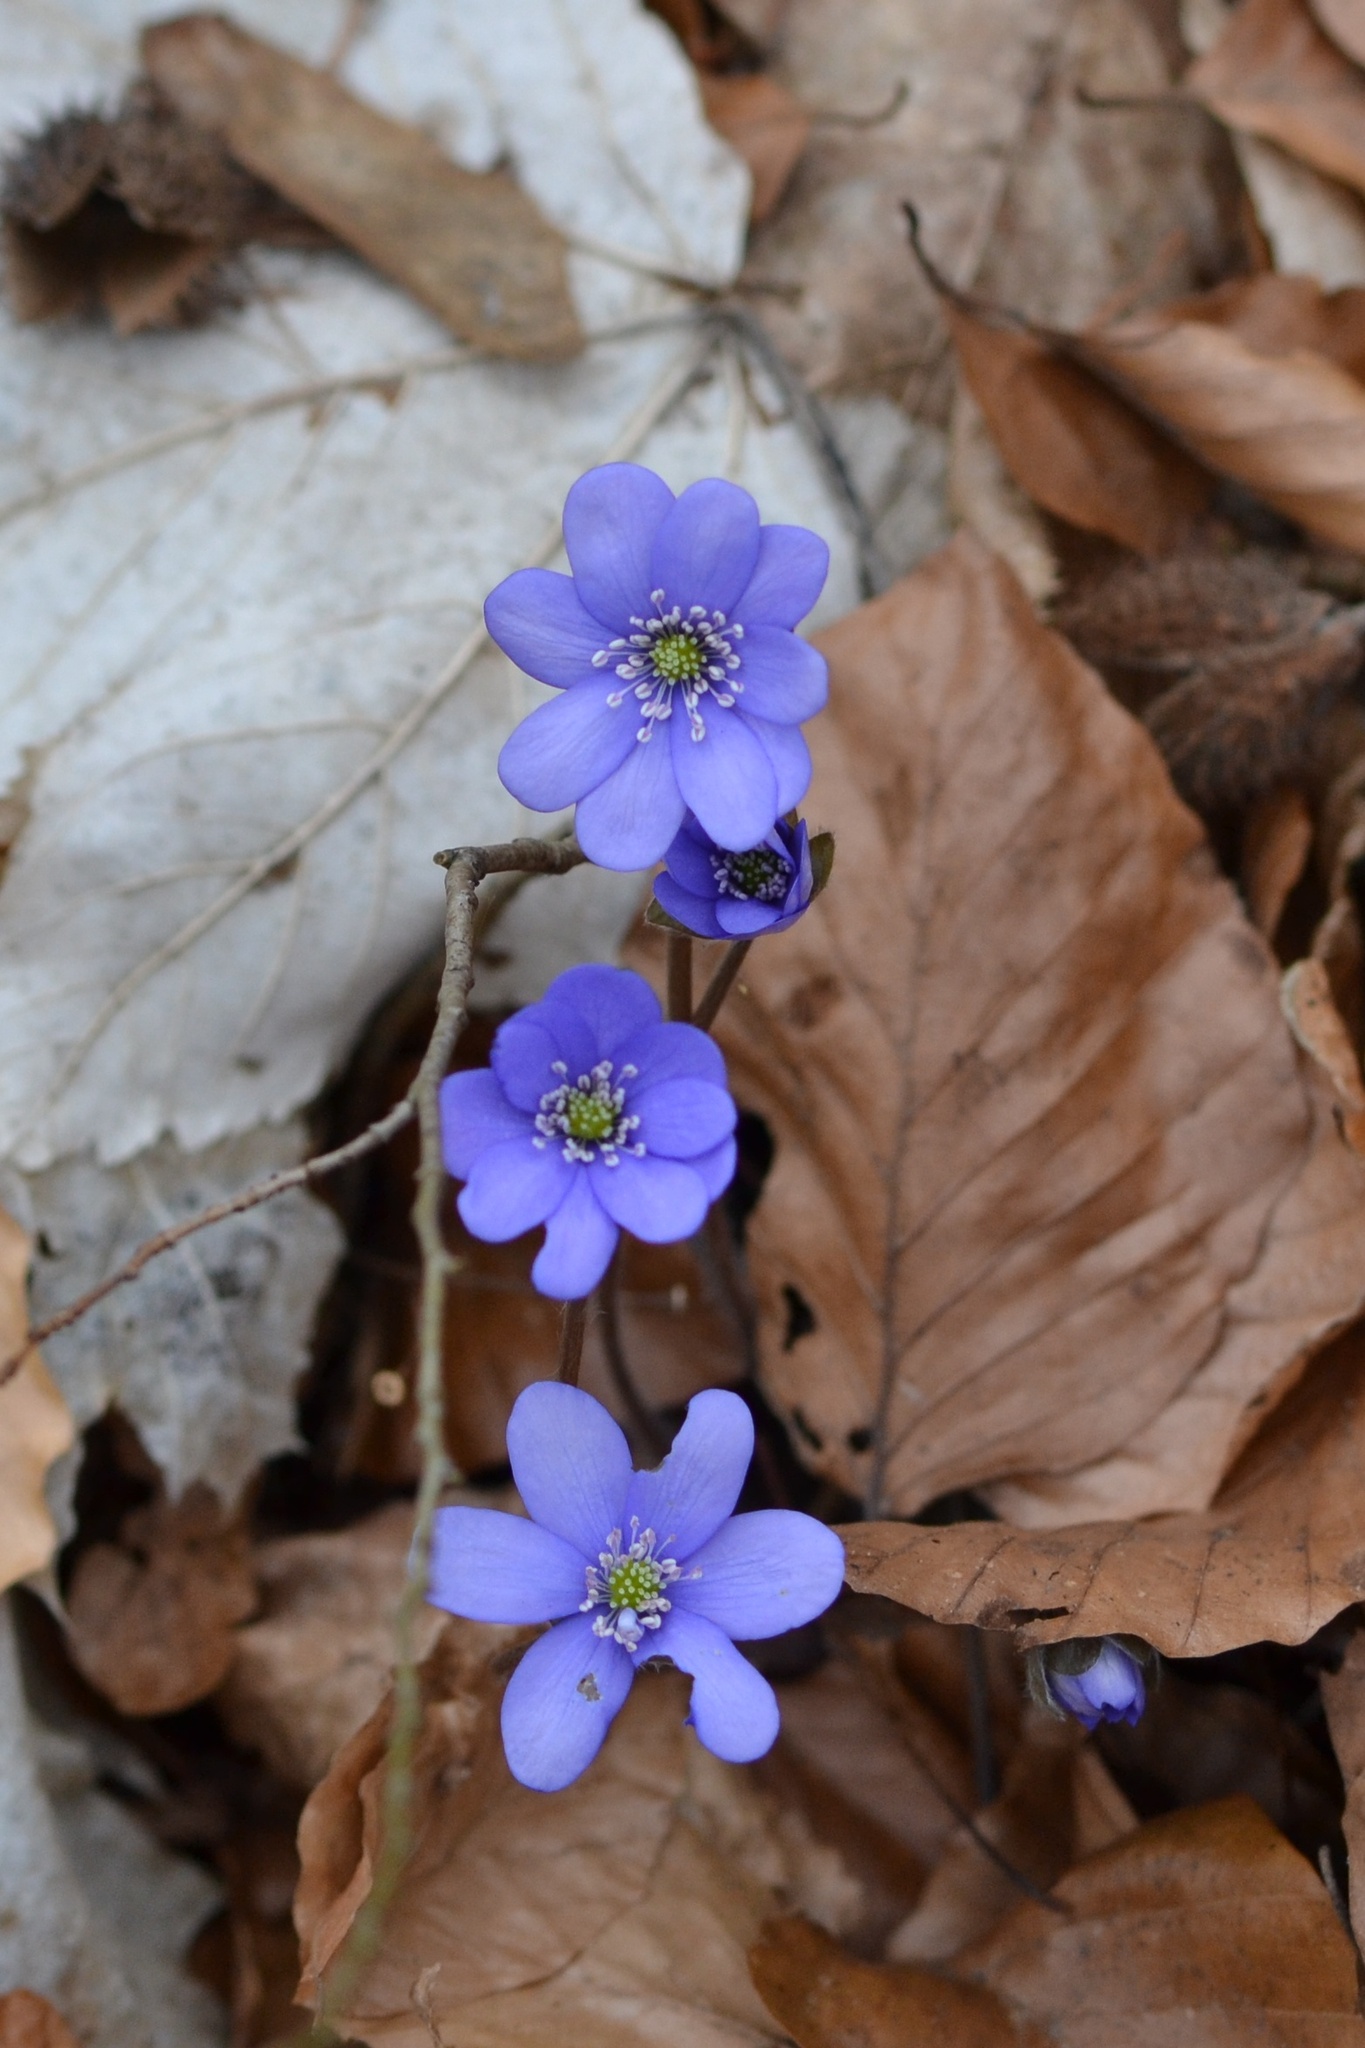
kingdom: Plantae
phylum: Tracheophyta
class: Magnoliopsida
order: Ranunculales
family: Ranunculaceae
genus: Hepatica
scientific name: Hepatica nobilis
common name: Liverleaf
